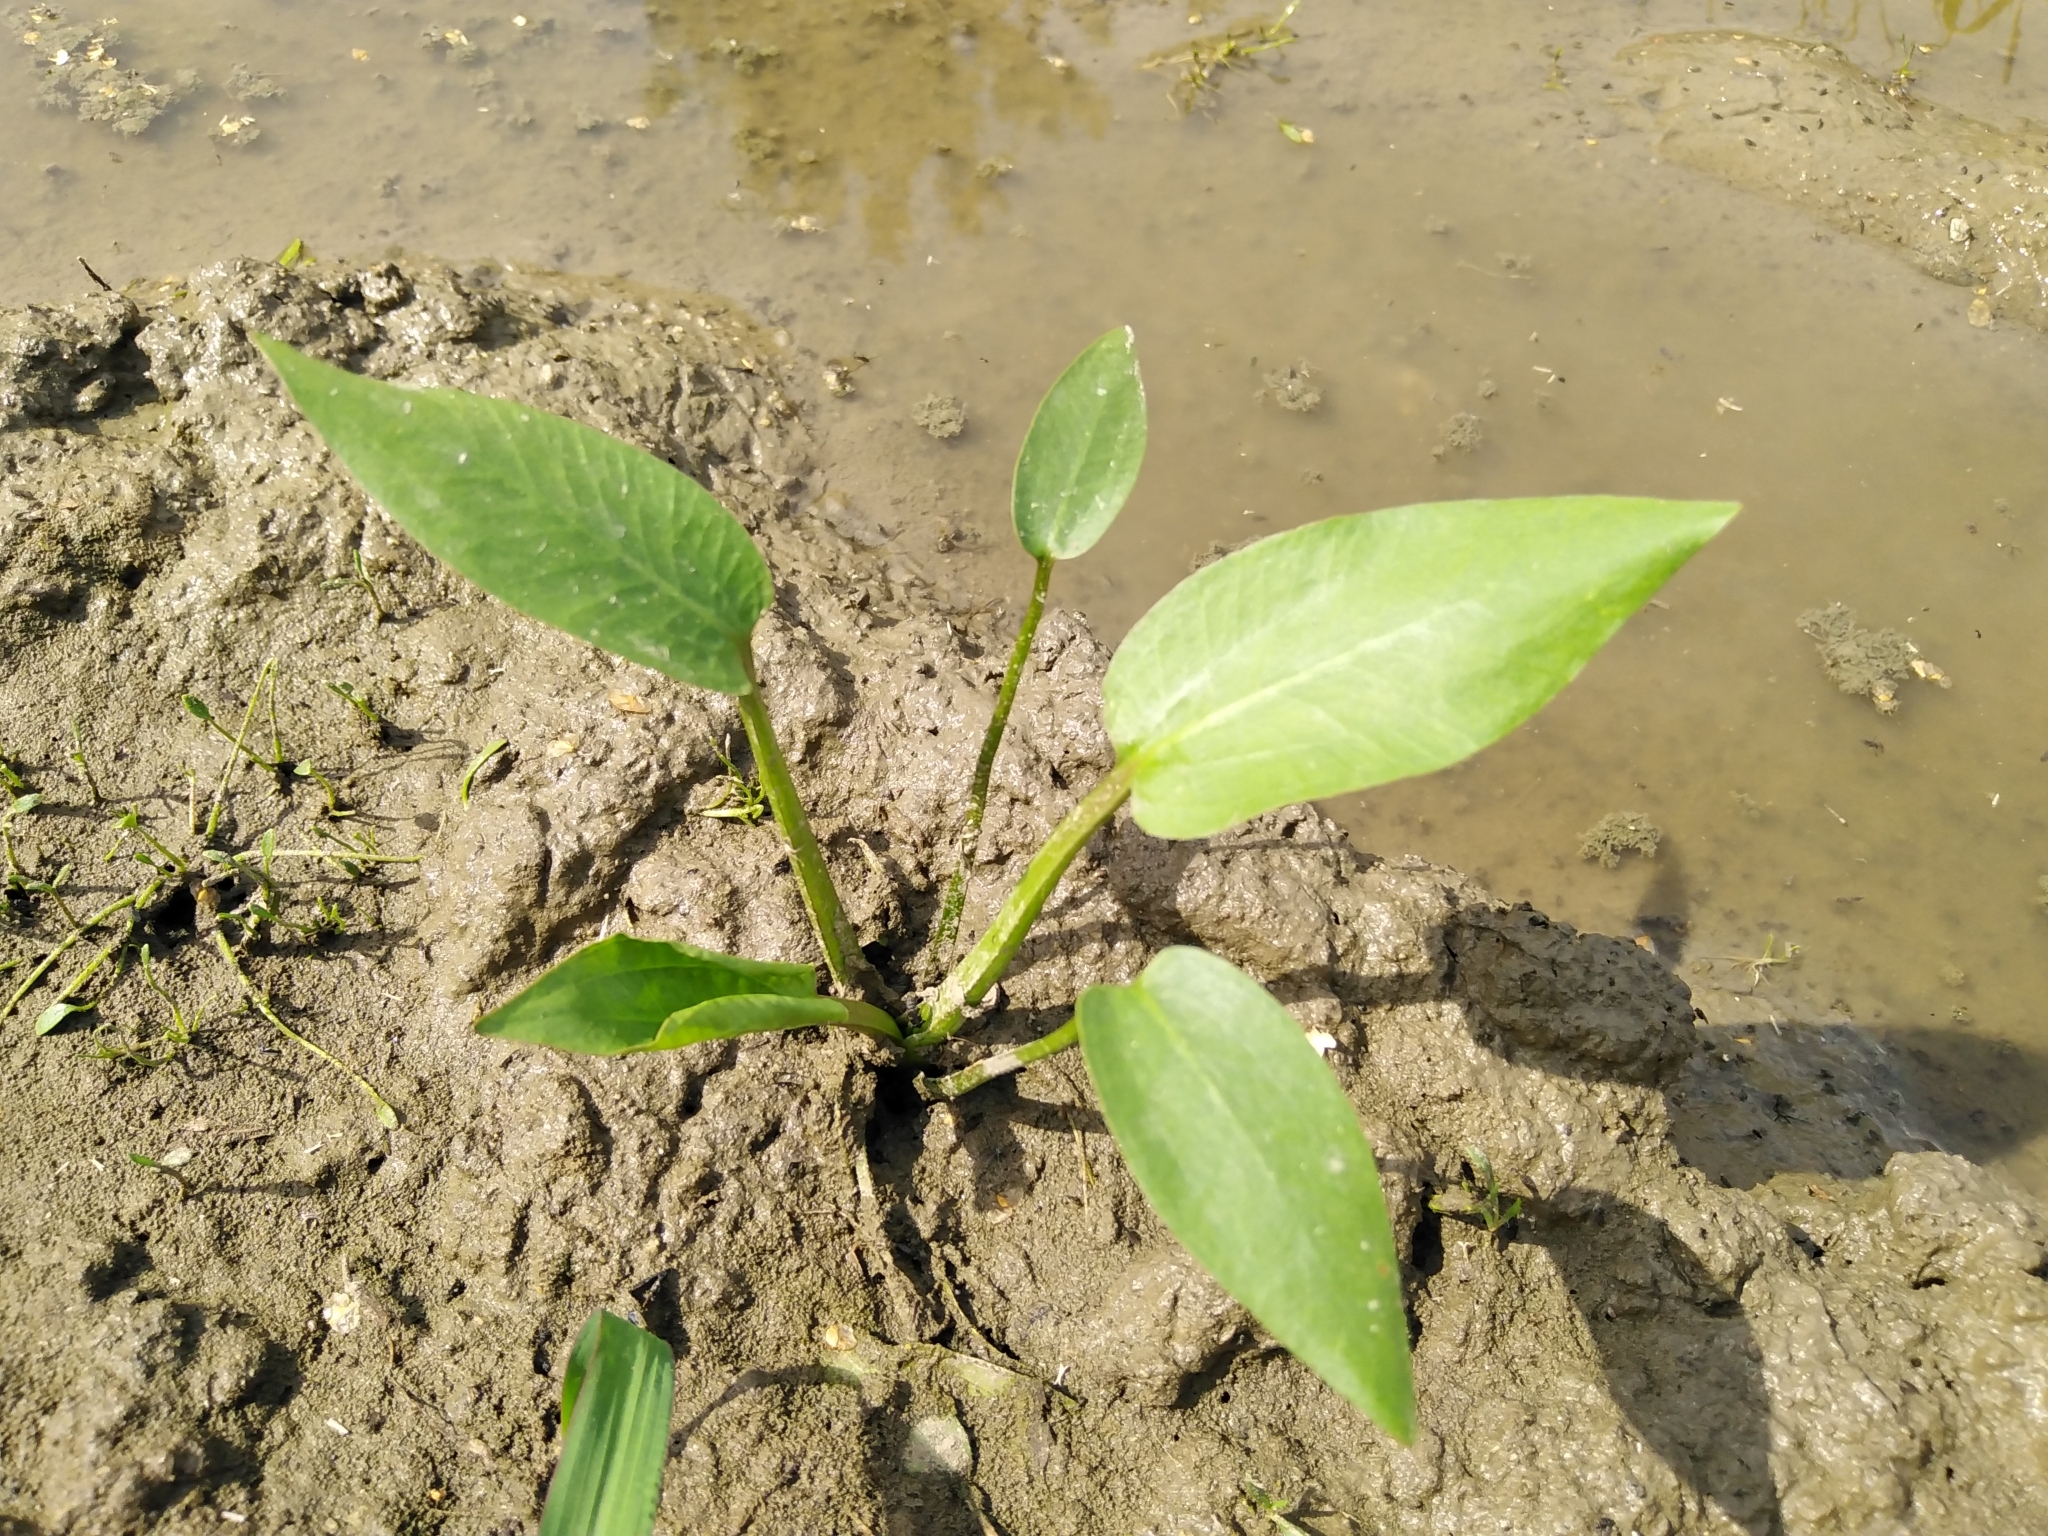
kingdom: Plantae
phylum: Tracheophyta
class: Liliopsida
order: Alismatales
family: Alismataceae
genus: Alisma
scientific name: Alisma plantago-aquatica
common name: Water-plantain
